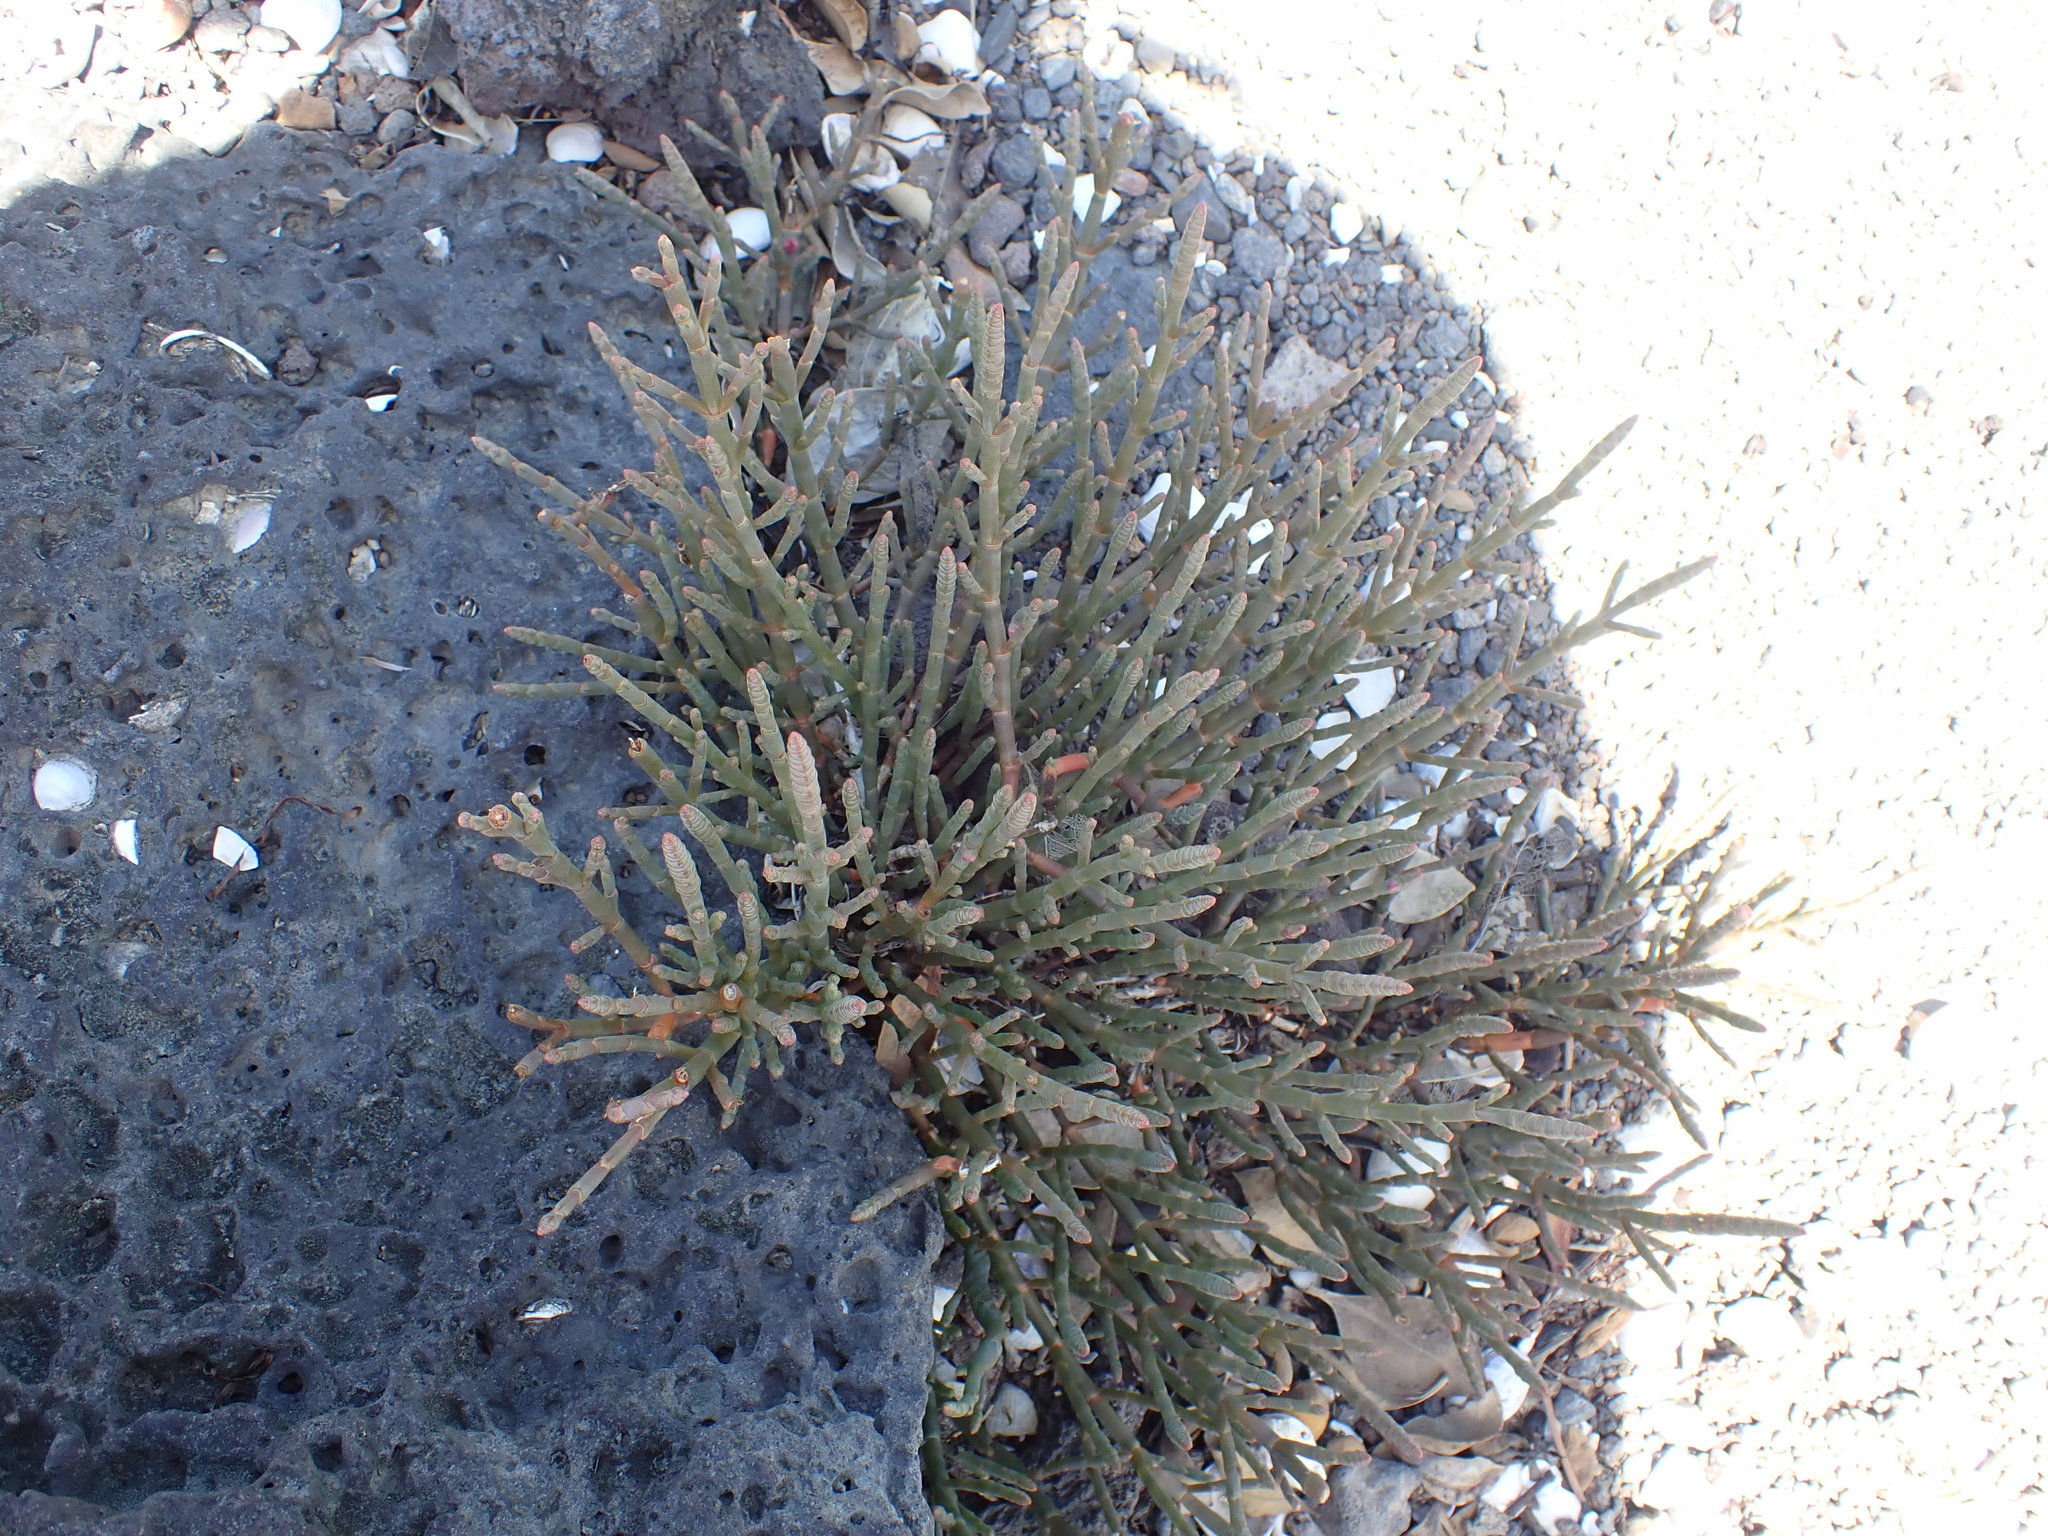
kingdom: Plantae
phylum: Tracheophyta
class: Magnoliopsida
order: Caryophyllales
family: Amaranthaceae
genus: Salicornia
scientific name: Salicornia quinqueflora
